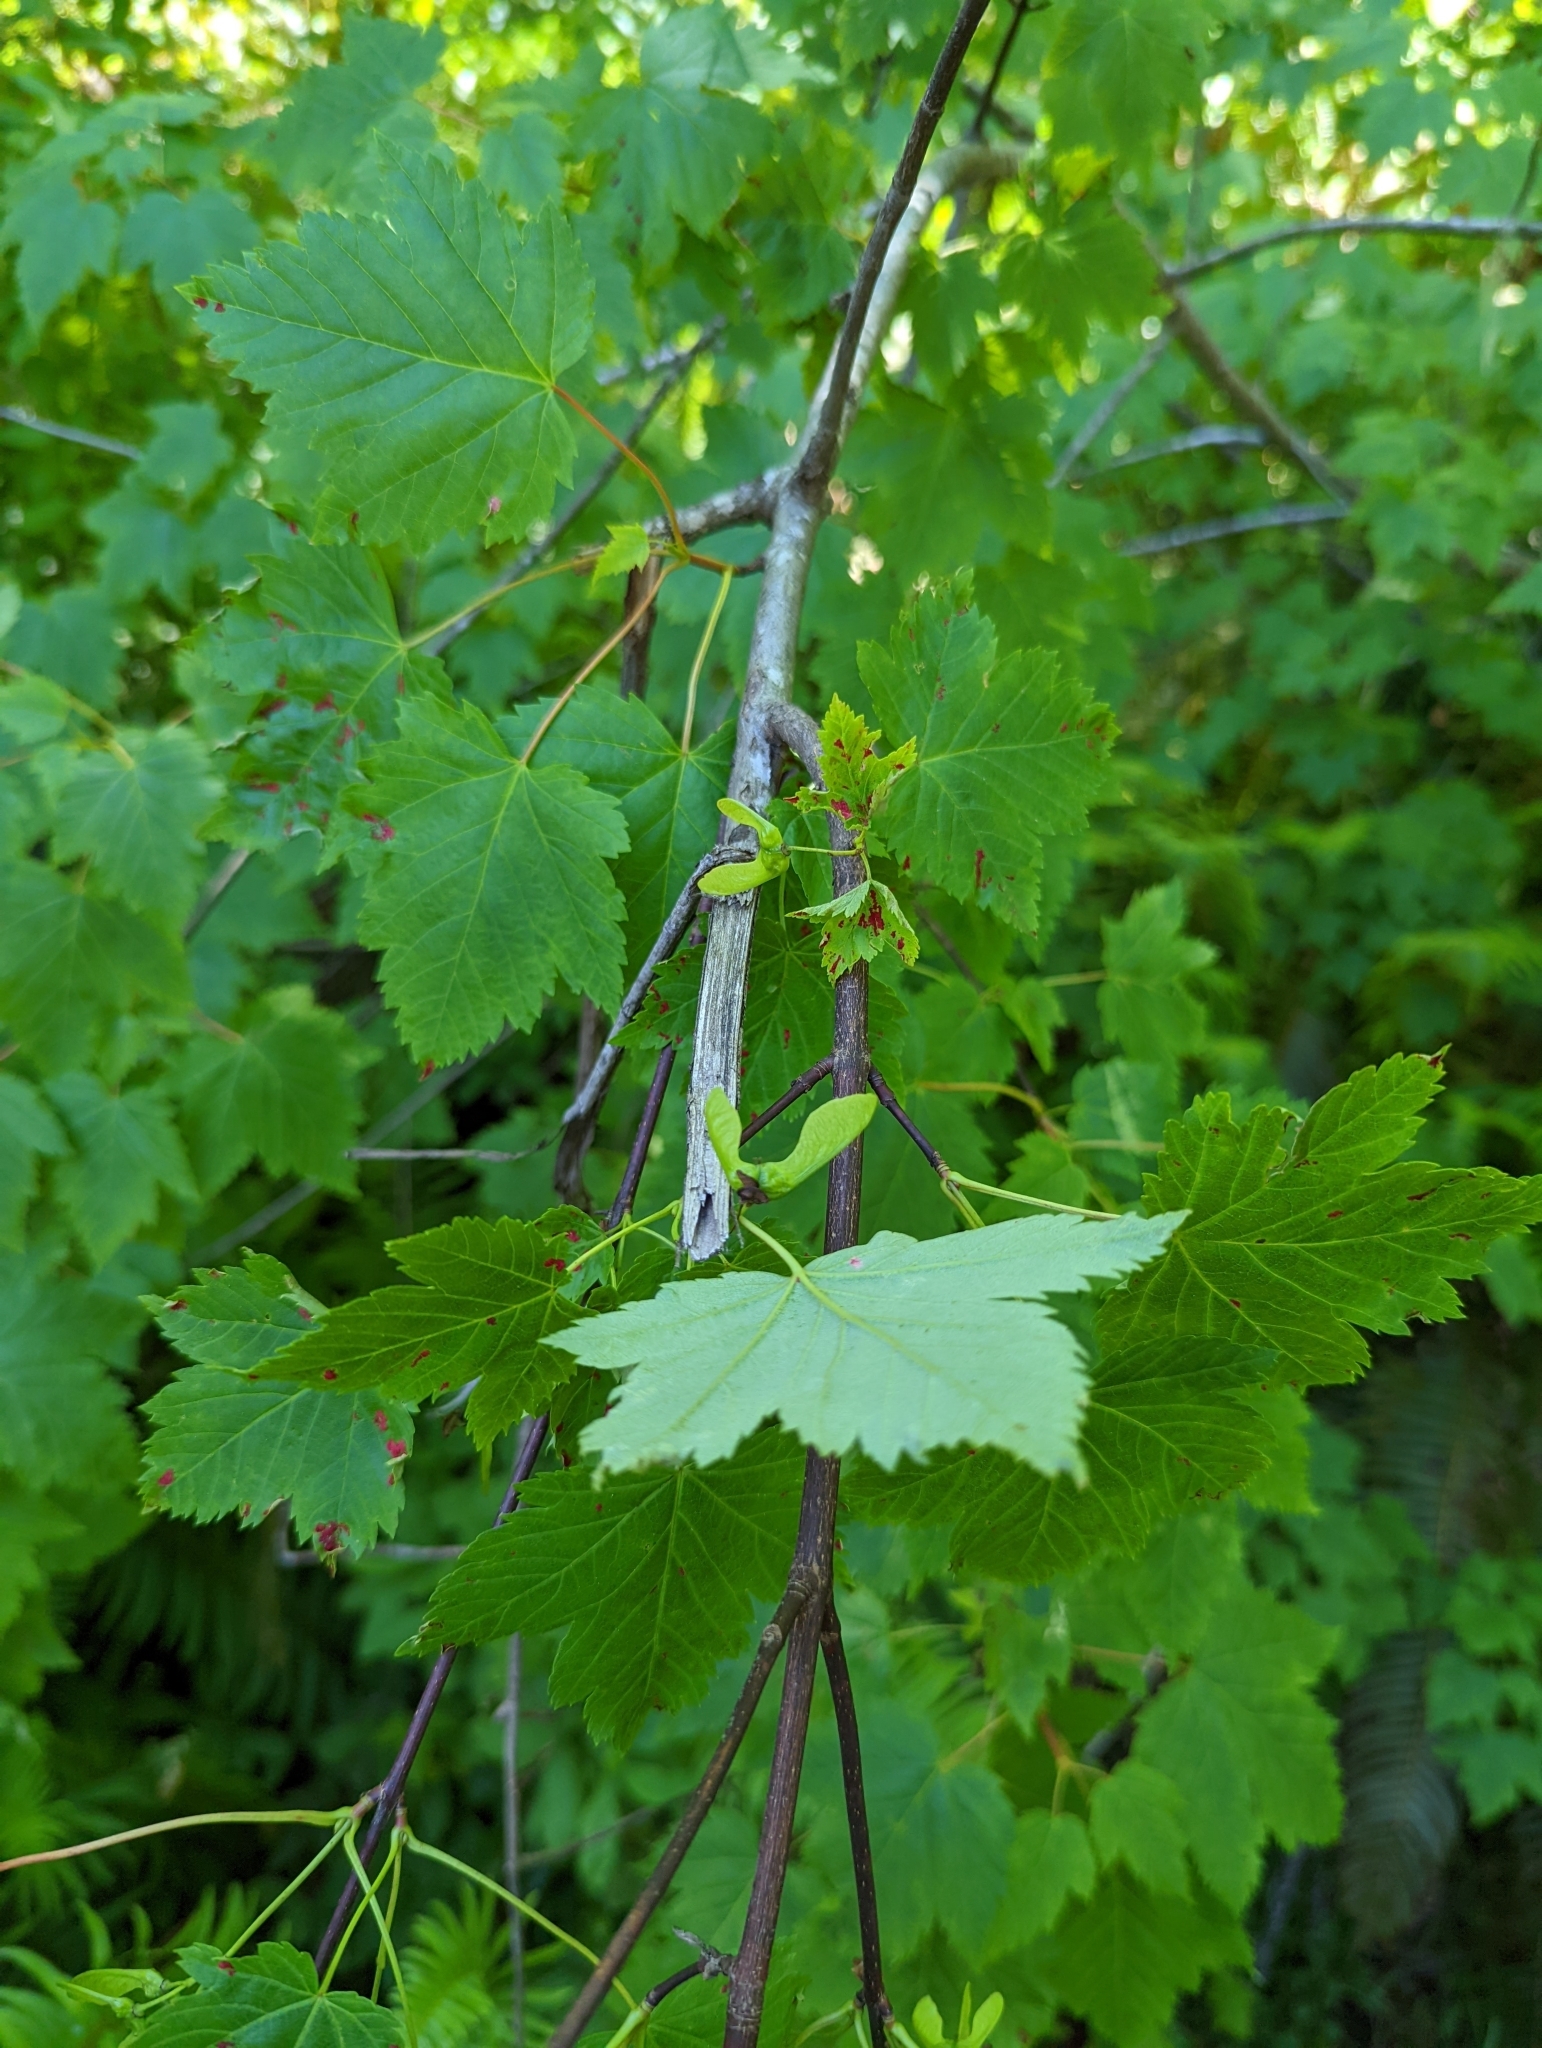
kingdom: Plantae
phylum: Tracheophyta
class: Magnoliopsida
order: Sapindales
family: Sapindaceae
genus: Acer
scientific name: Acer glabrum
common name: Rocky mountain maple
